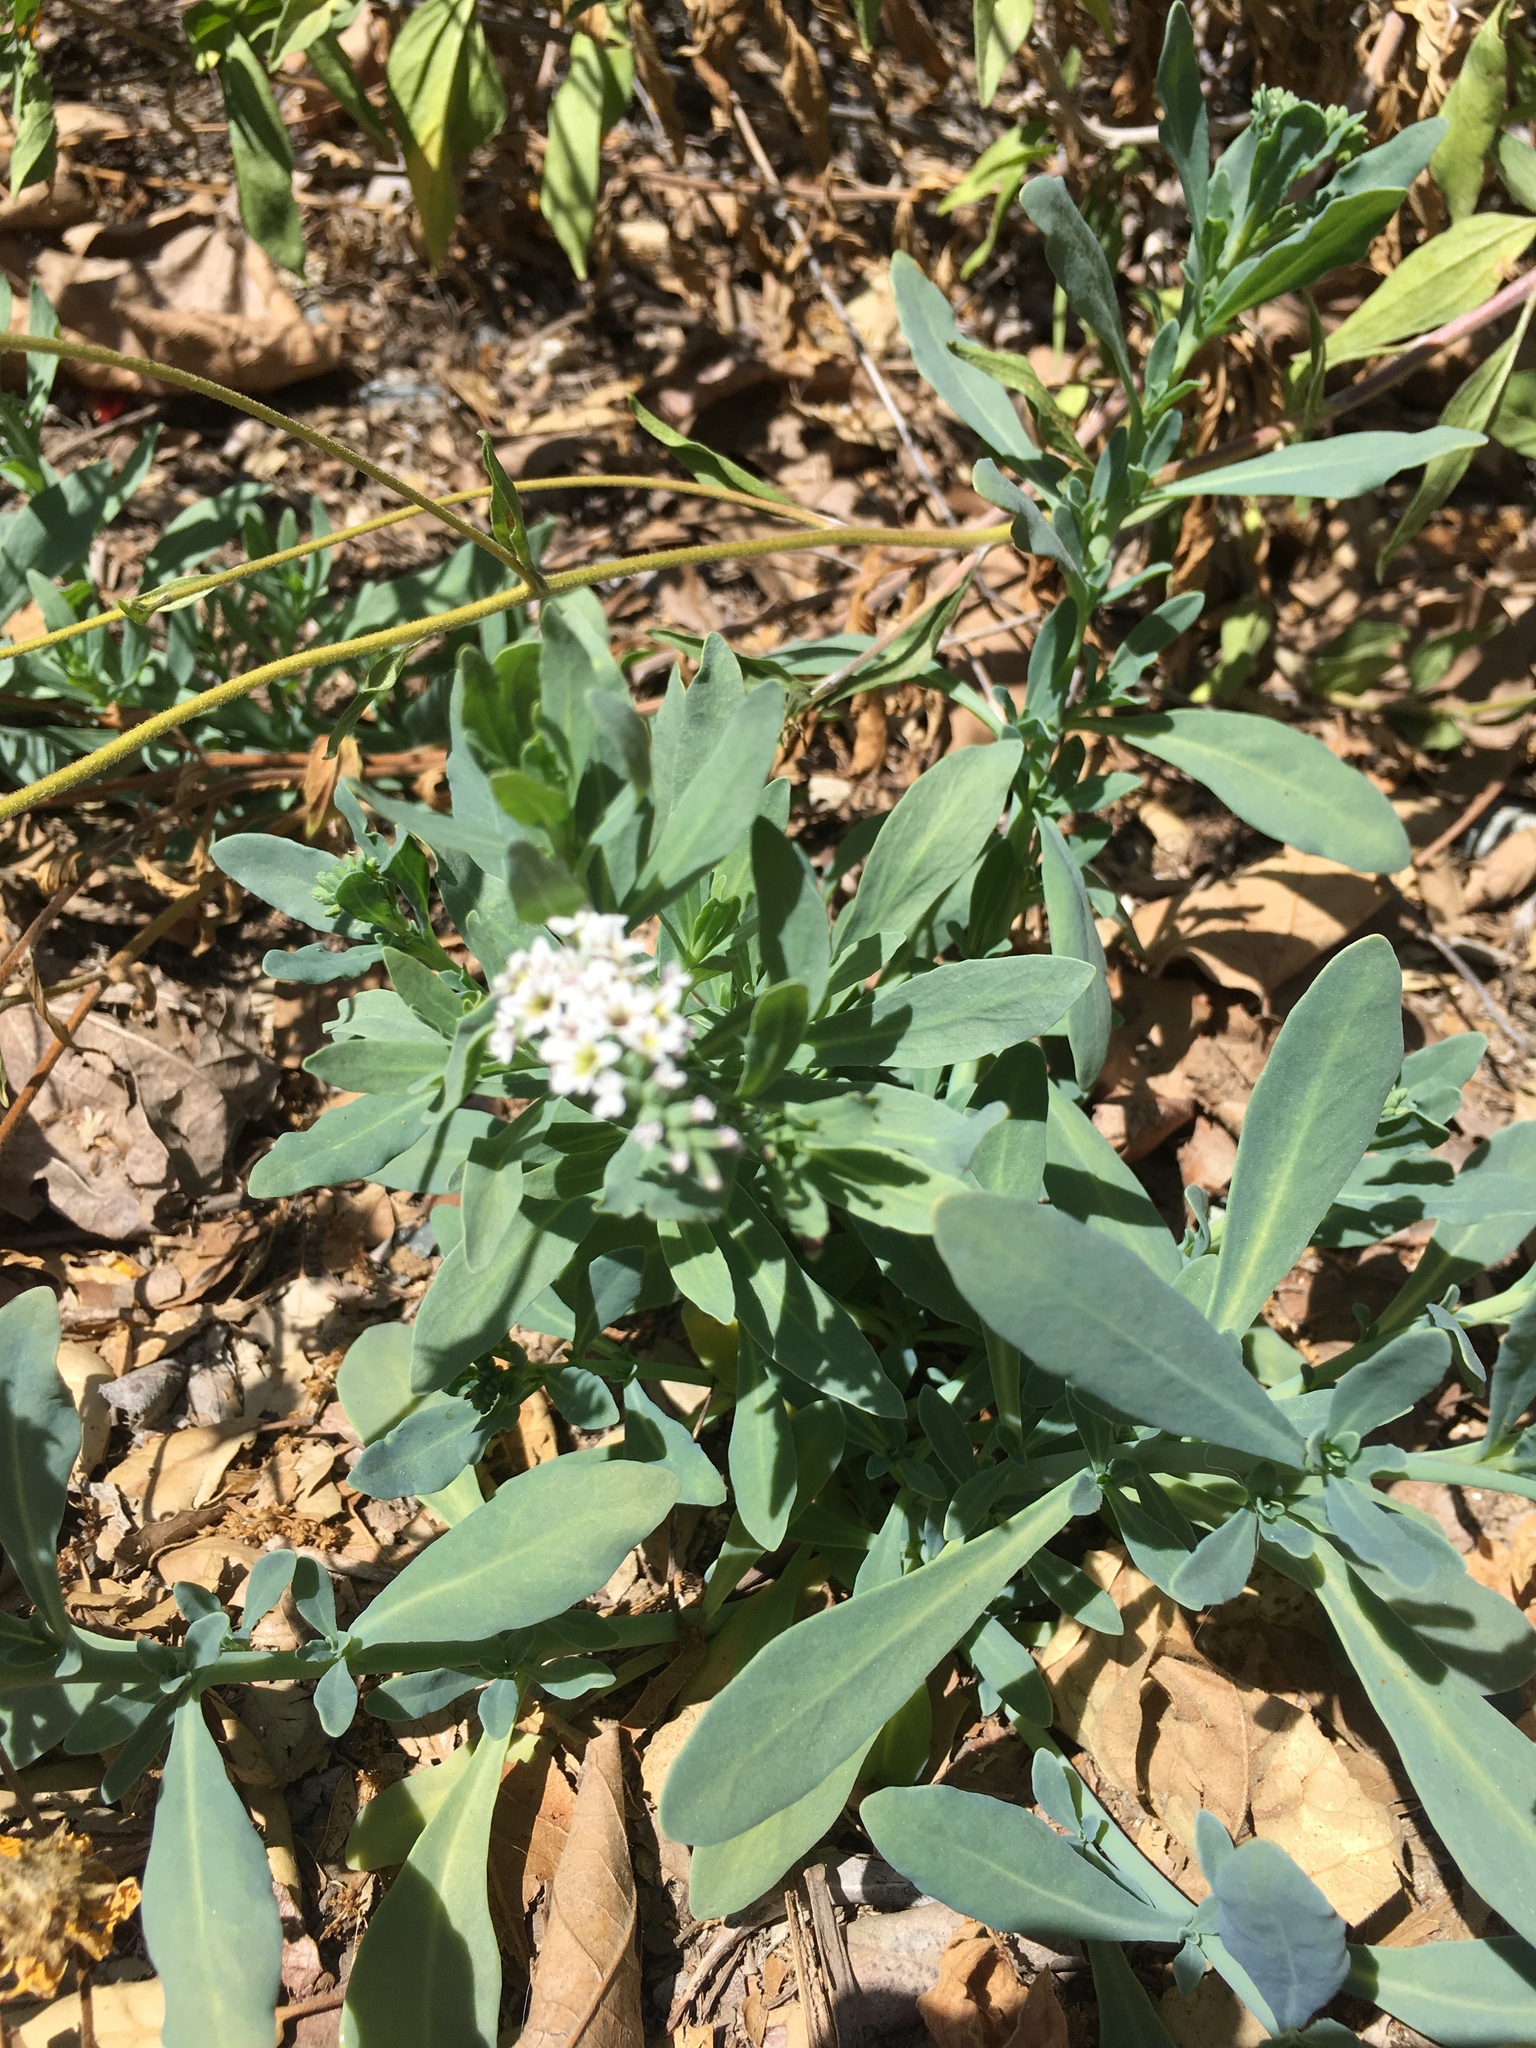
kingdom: Plantae
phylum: Tracheophyta
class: Magnoliopsida
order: Boraginales
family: Heliotropiaceae
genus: Heliotropium
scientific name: Heliotropium curassavicum
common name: Seaside heliotrope
